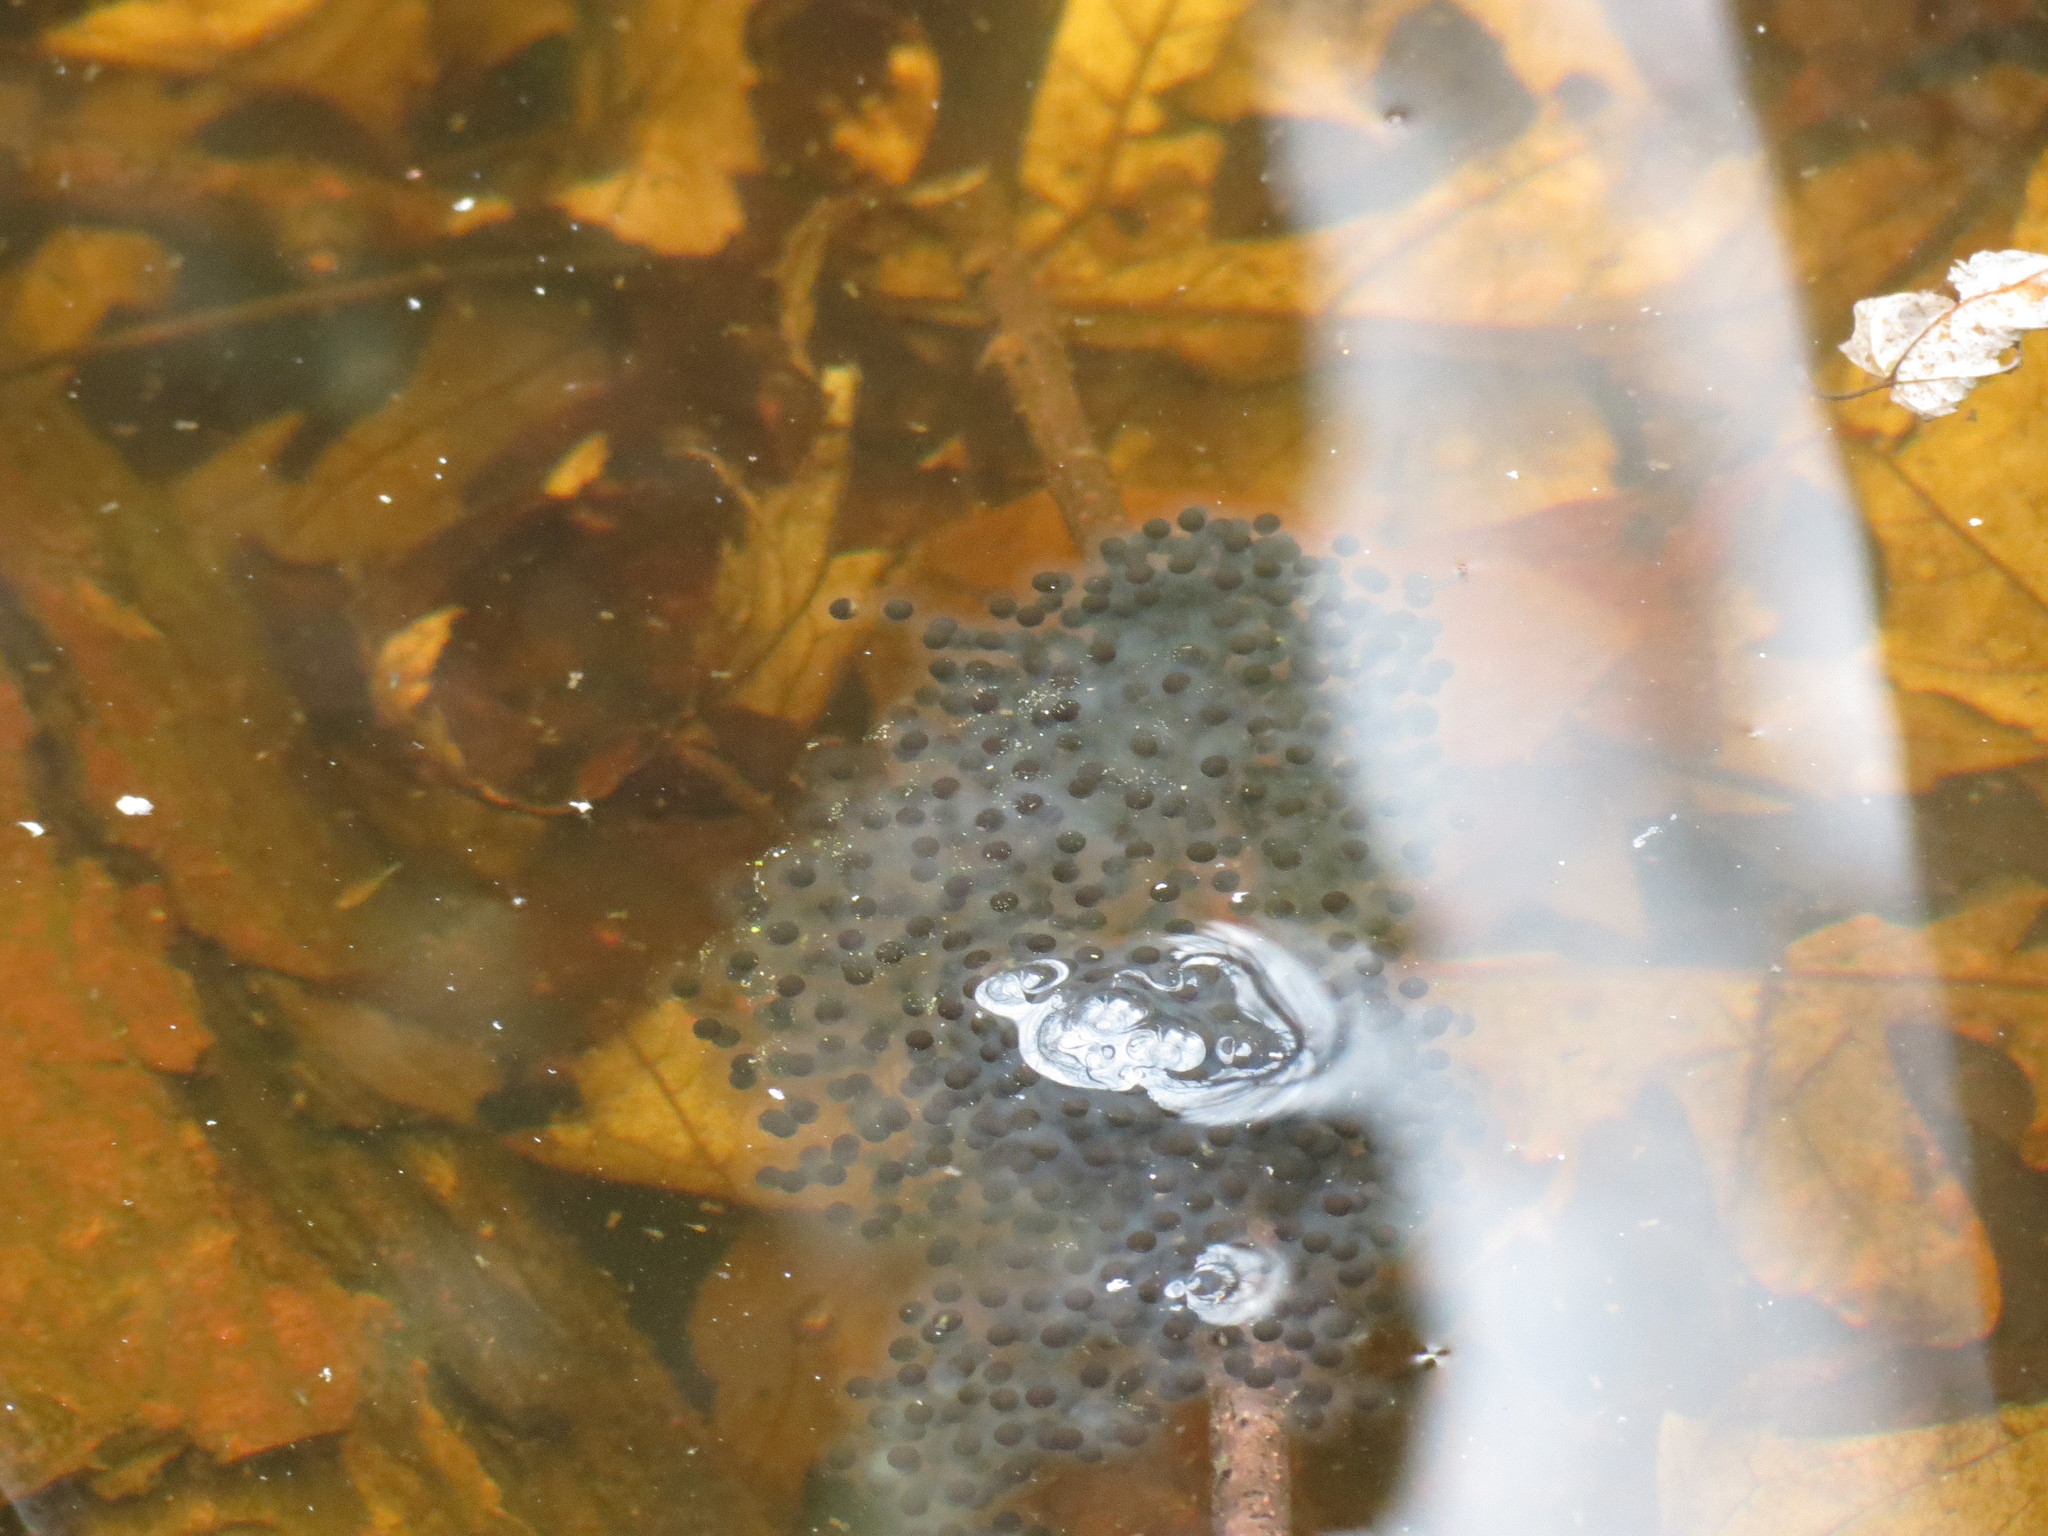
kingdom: Animalia
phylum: Chordata
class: Amphibia
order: Anura
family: Ranidae
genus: Lithobates
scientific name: Lithobates sylvaticus
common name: Wood frog
